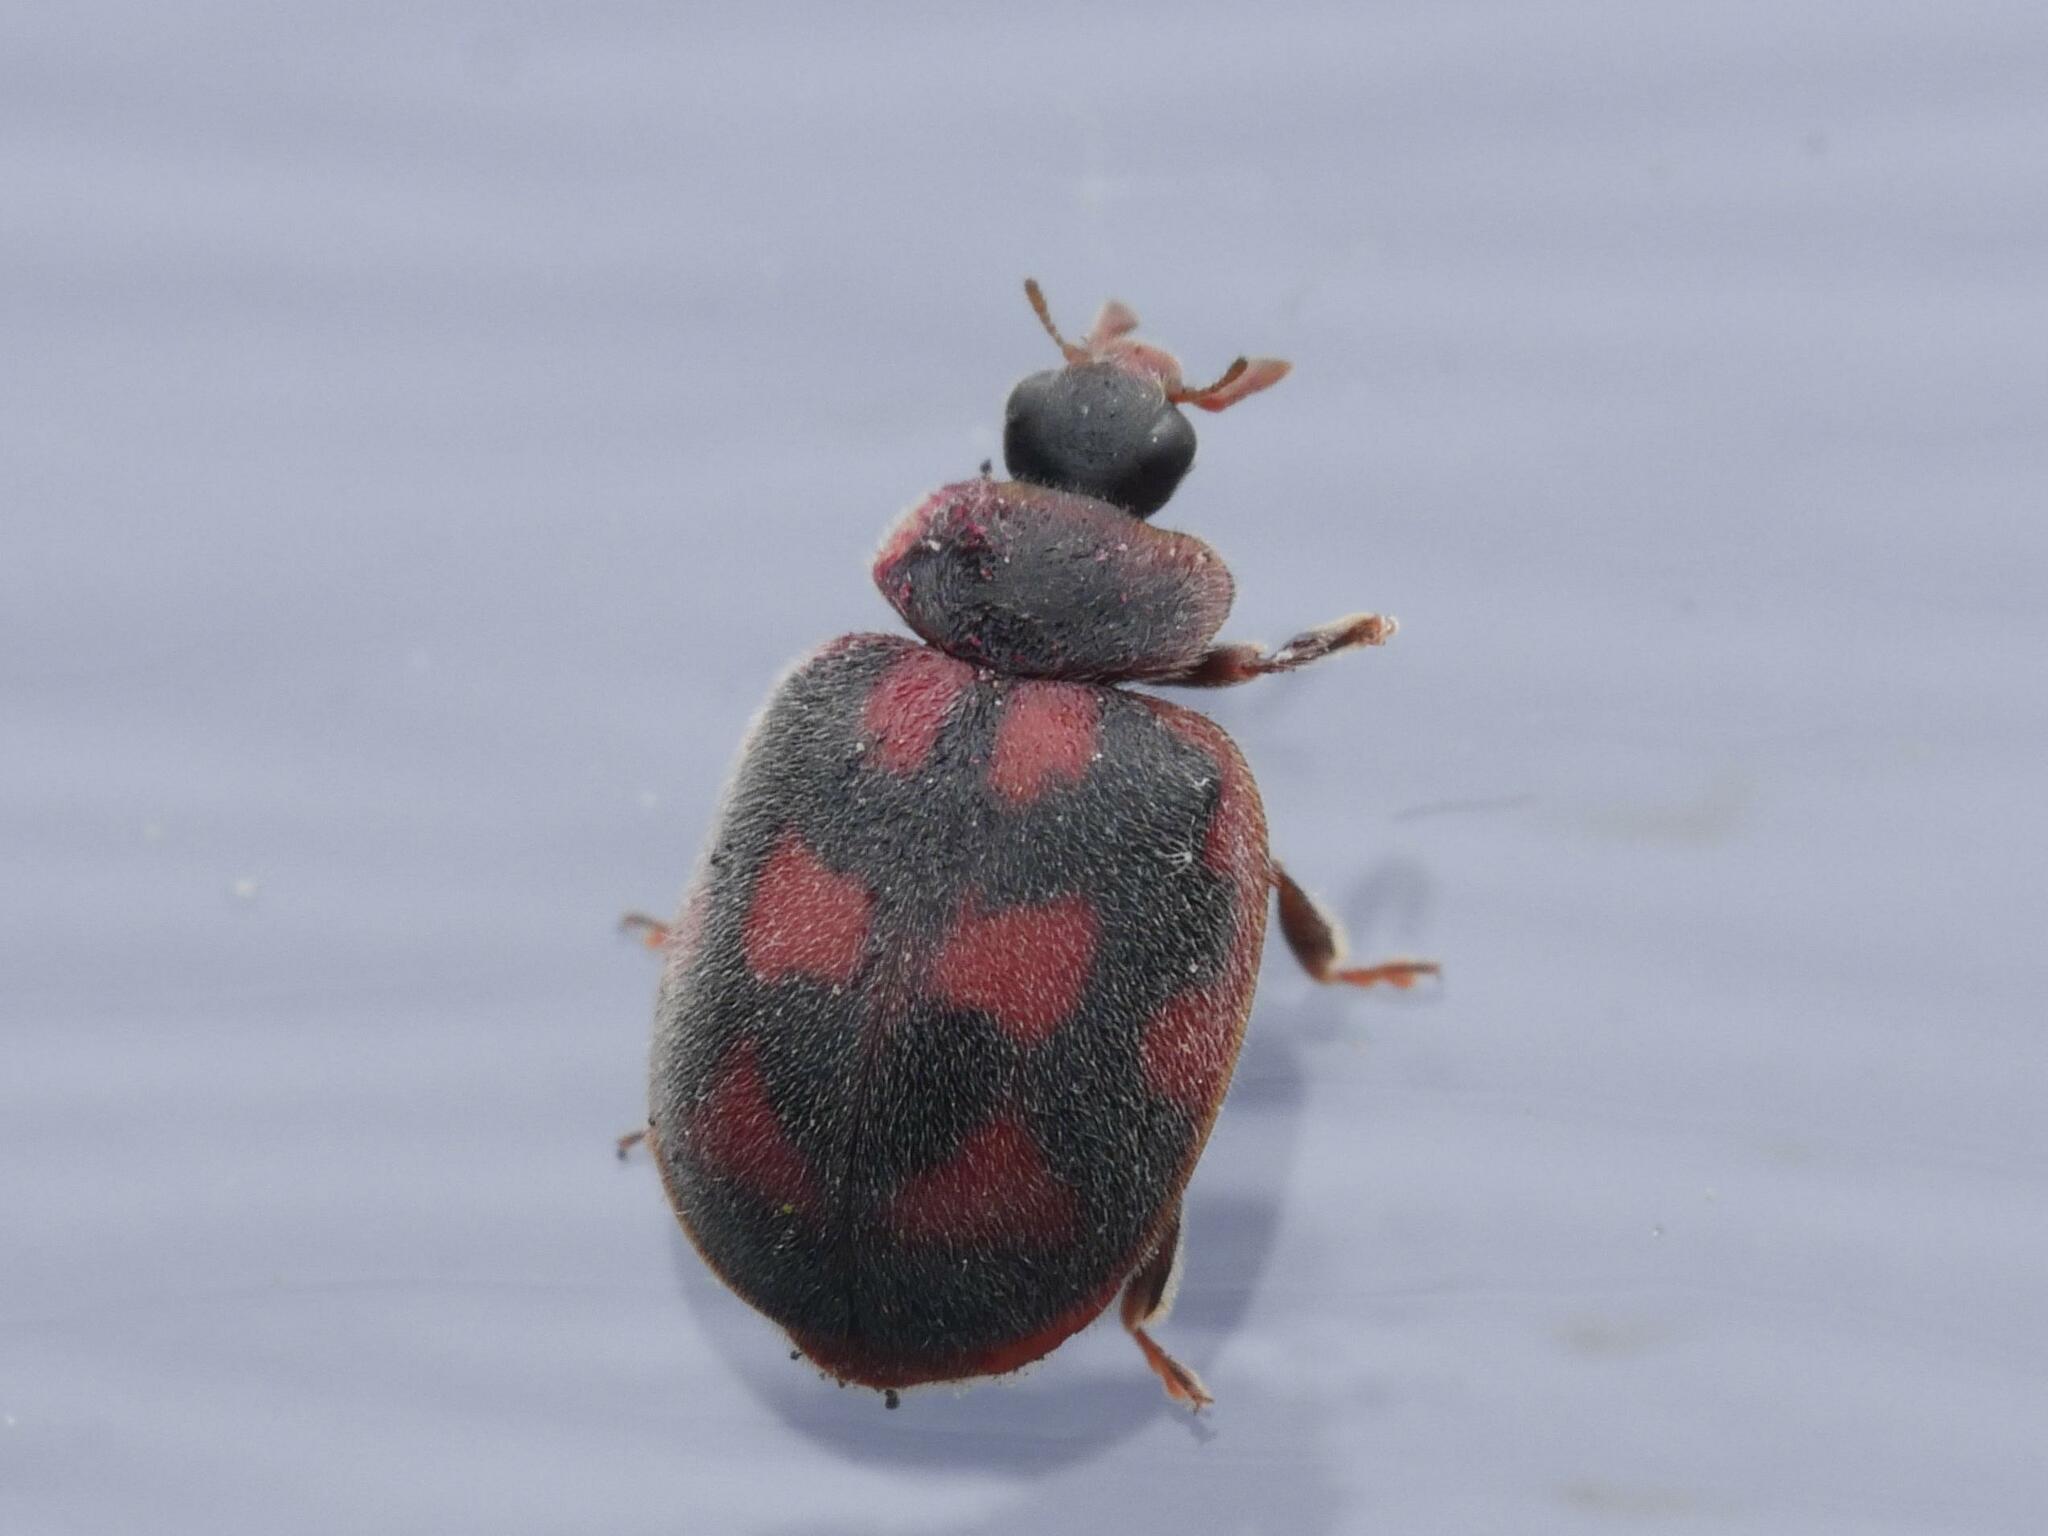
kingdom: Animalia
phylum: Arthropoda
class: Insecta
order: Coleoptera
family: Coccinellidae
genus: Novius
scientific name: Novius cruentatus
